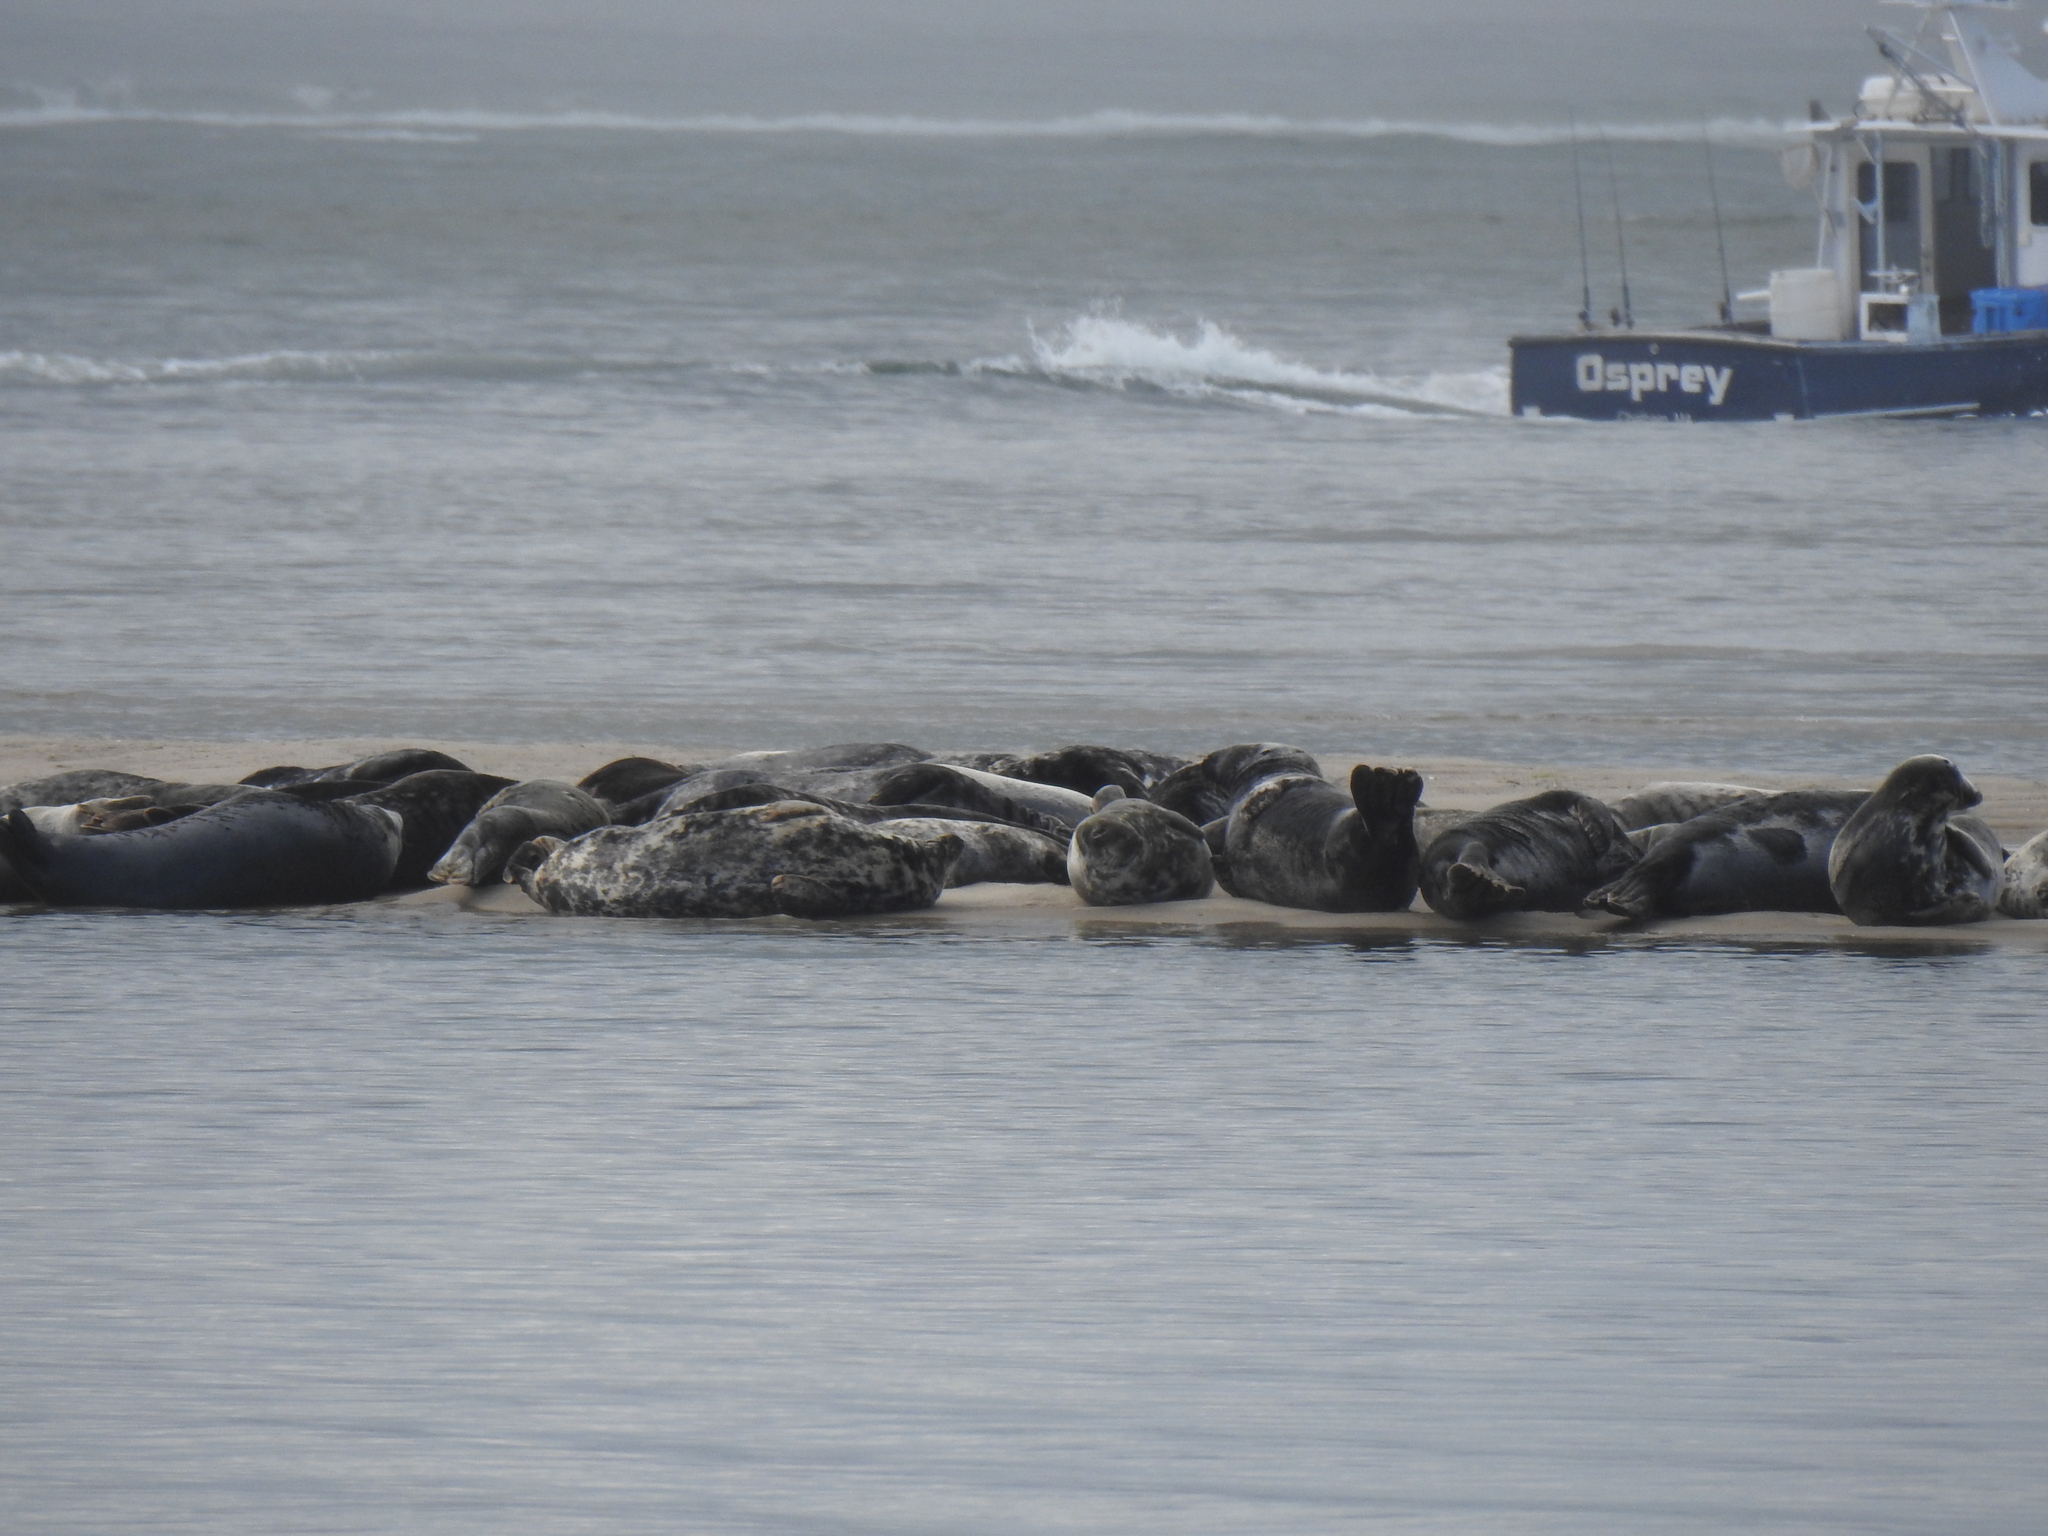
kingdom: Animalia
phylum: Chordata
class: Mammalia
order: Carnivora
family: Phocidae
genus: Halichoerus
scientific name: Halichoerus grypus
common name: Grey seal
